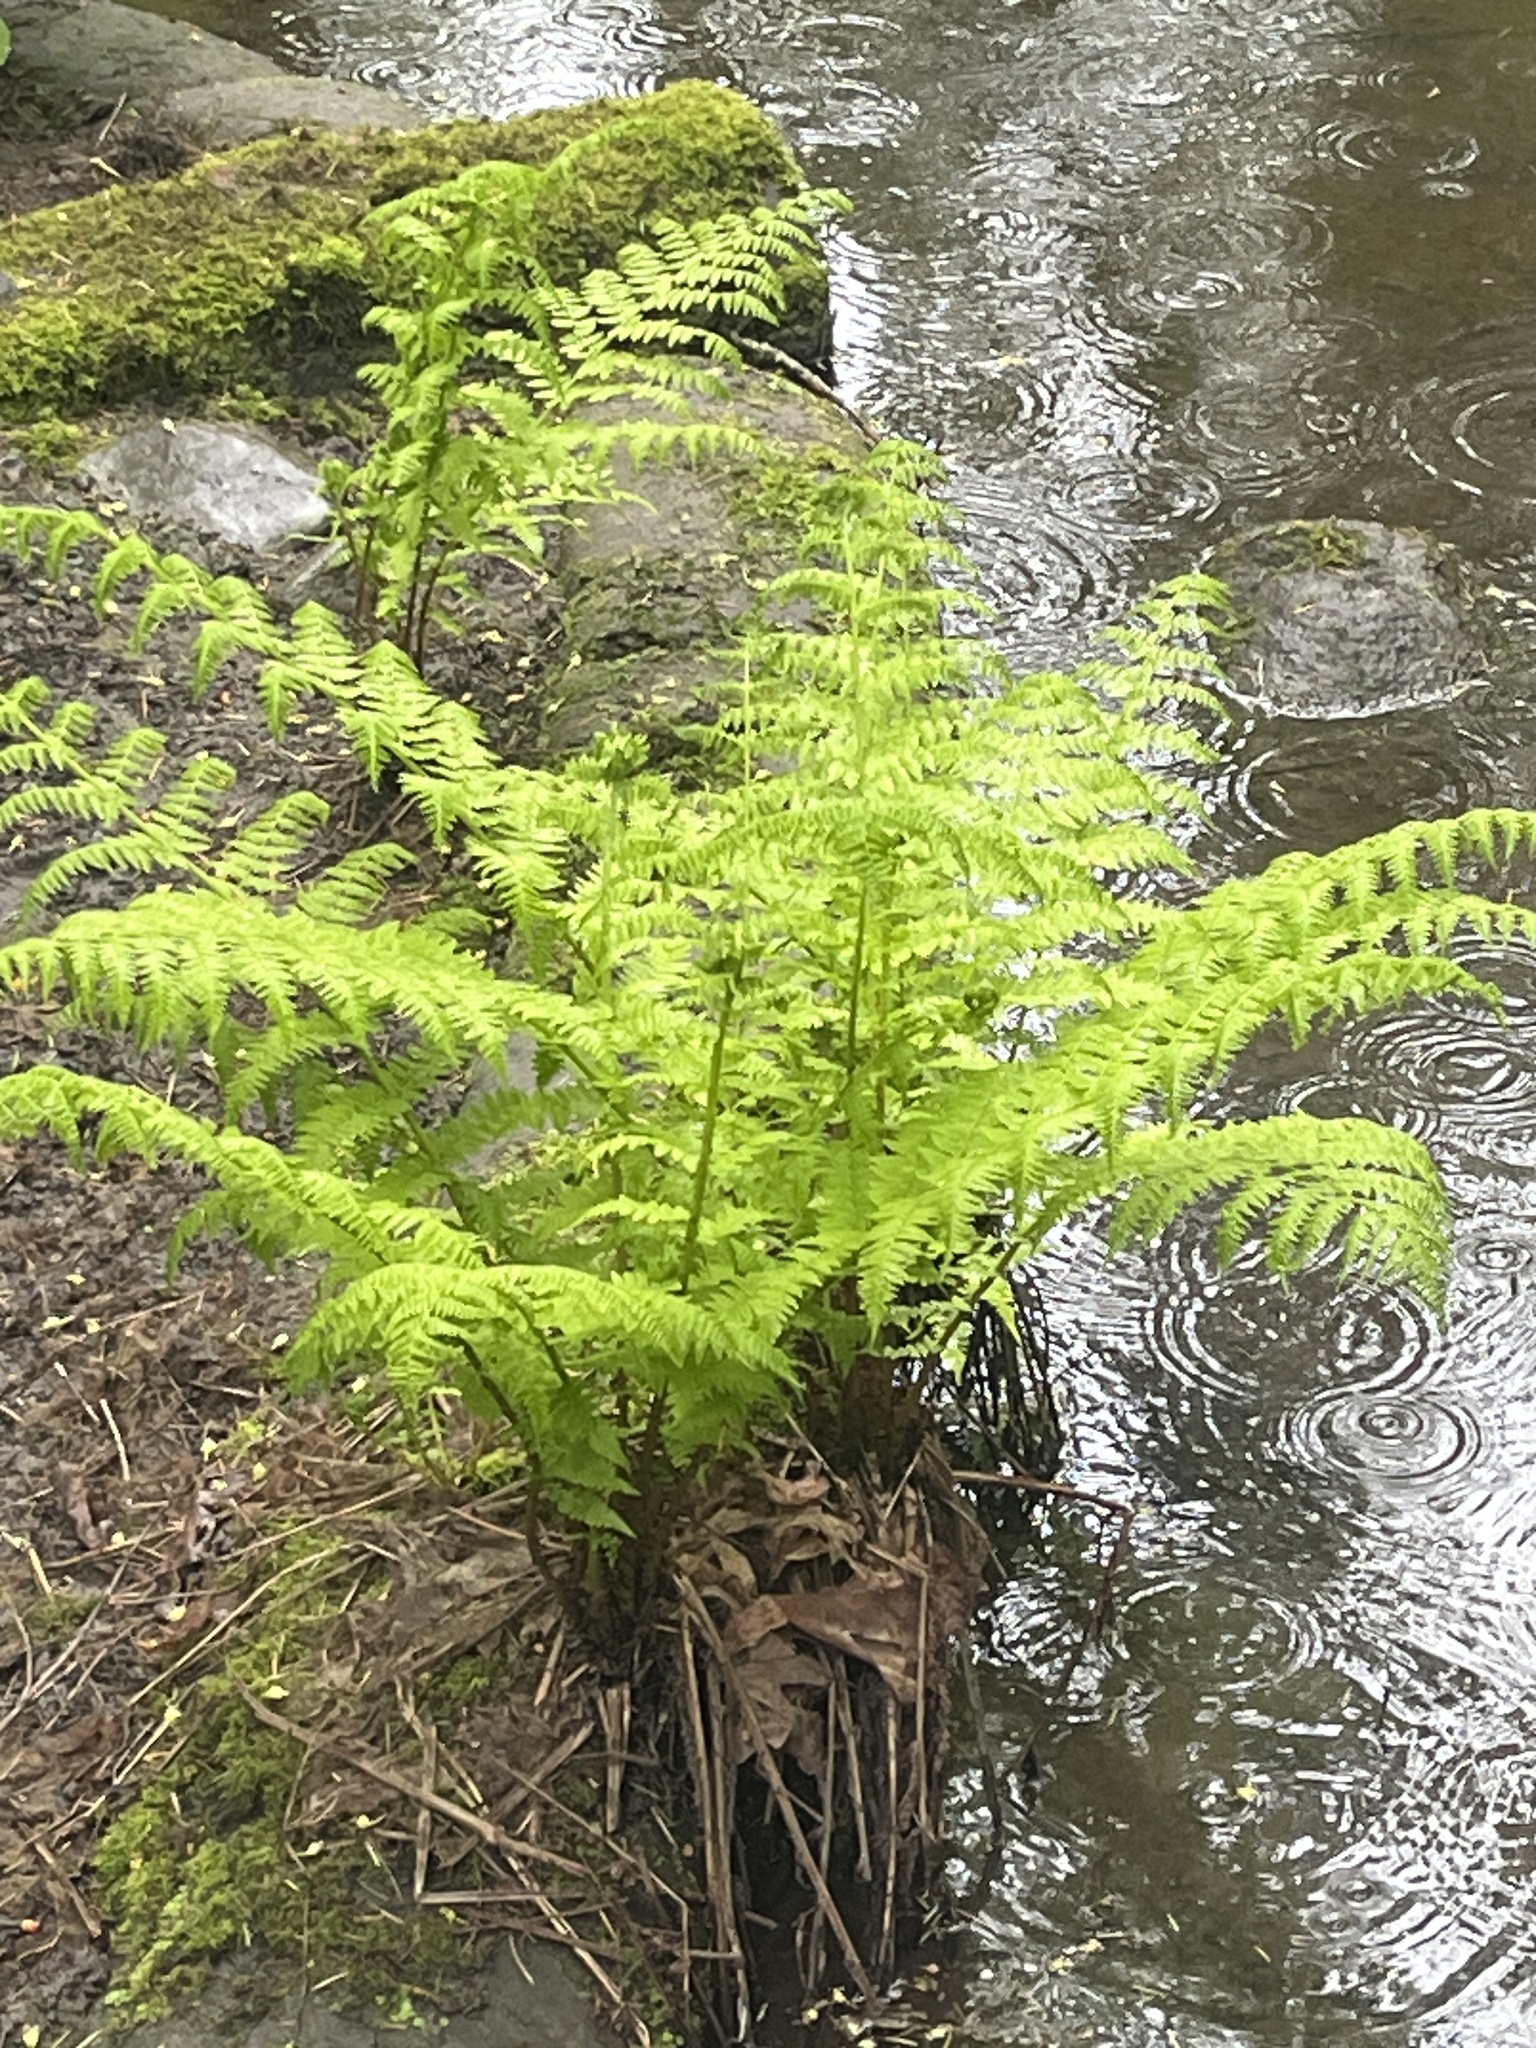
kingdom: Plantae
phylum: Tracheophyta
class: Polypodiopsida
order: Polypodiales
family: Athyriaceae
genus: Athyrium
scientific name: Athyrium filix-femina
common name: Lady fern
